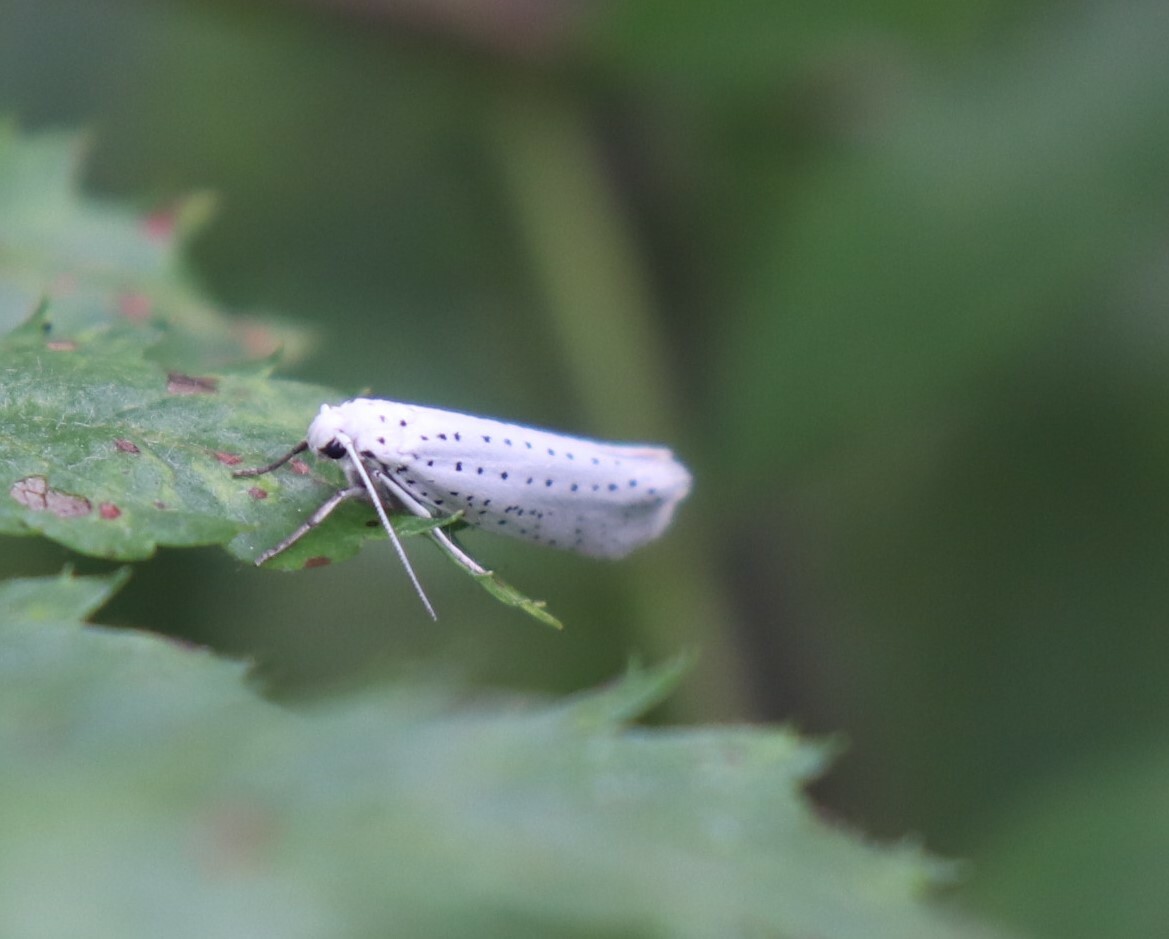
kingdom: Animalia
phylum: Arthropoda
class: Insecta
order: Lepidoptera
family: Yponomeutidae
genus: Yponomeuta
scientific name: Yponomeuta evonymella
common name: Bird-cherry ermine
